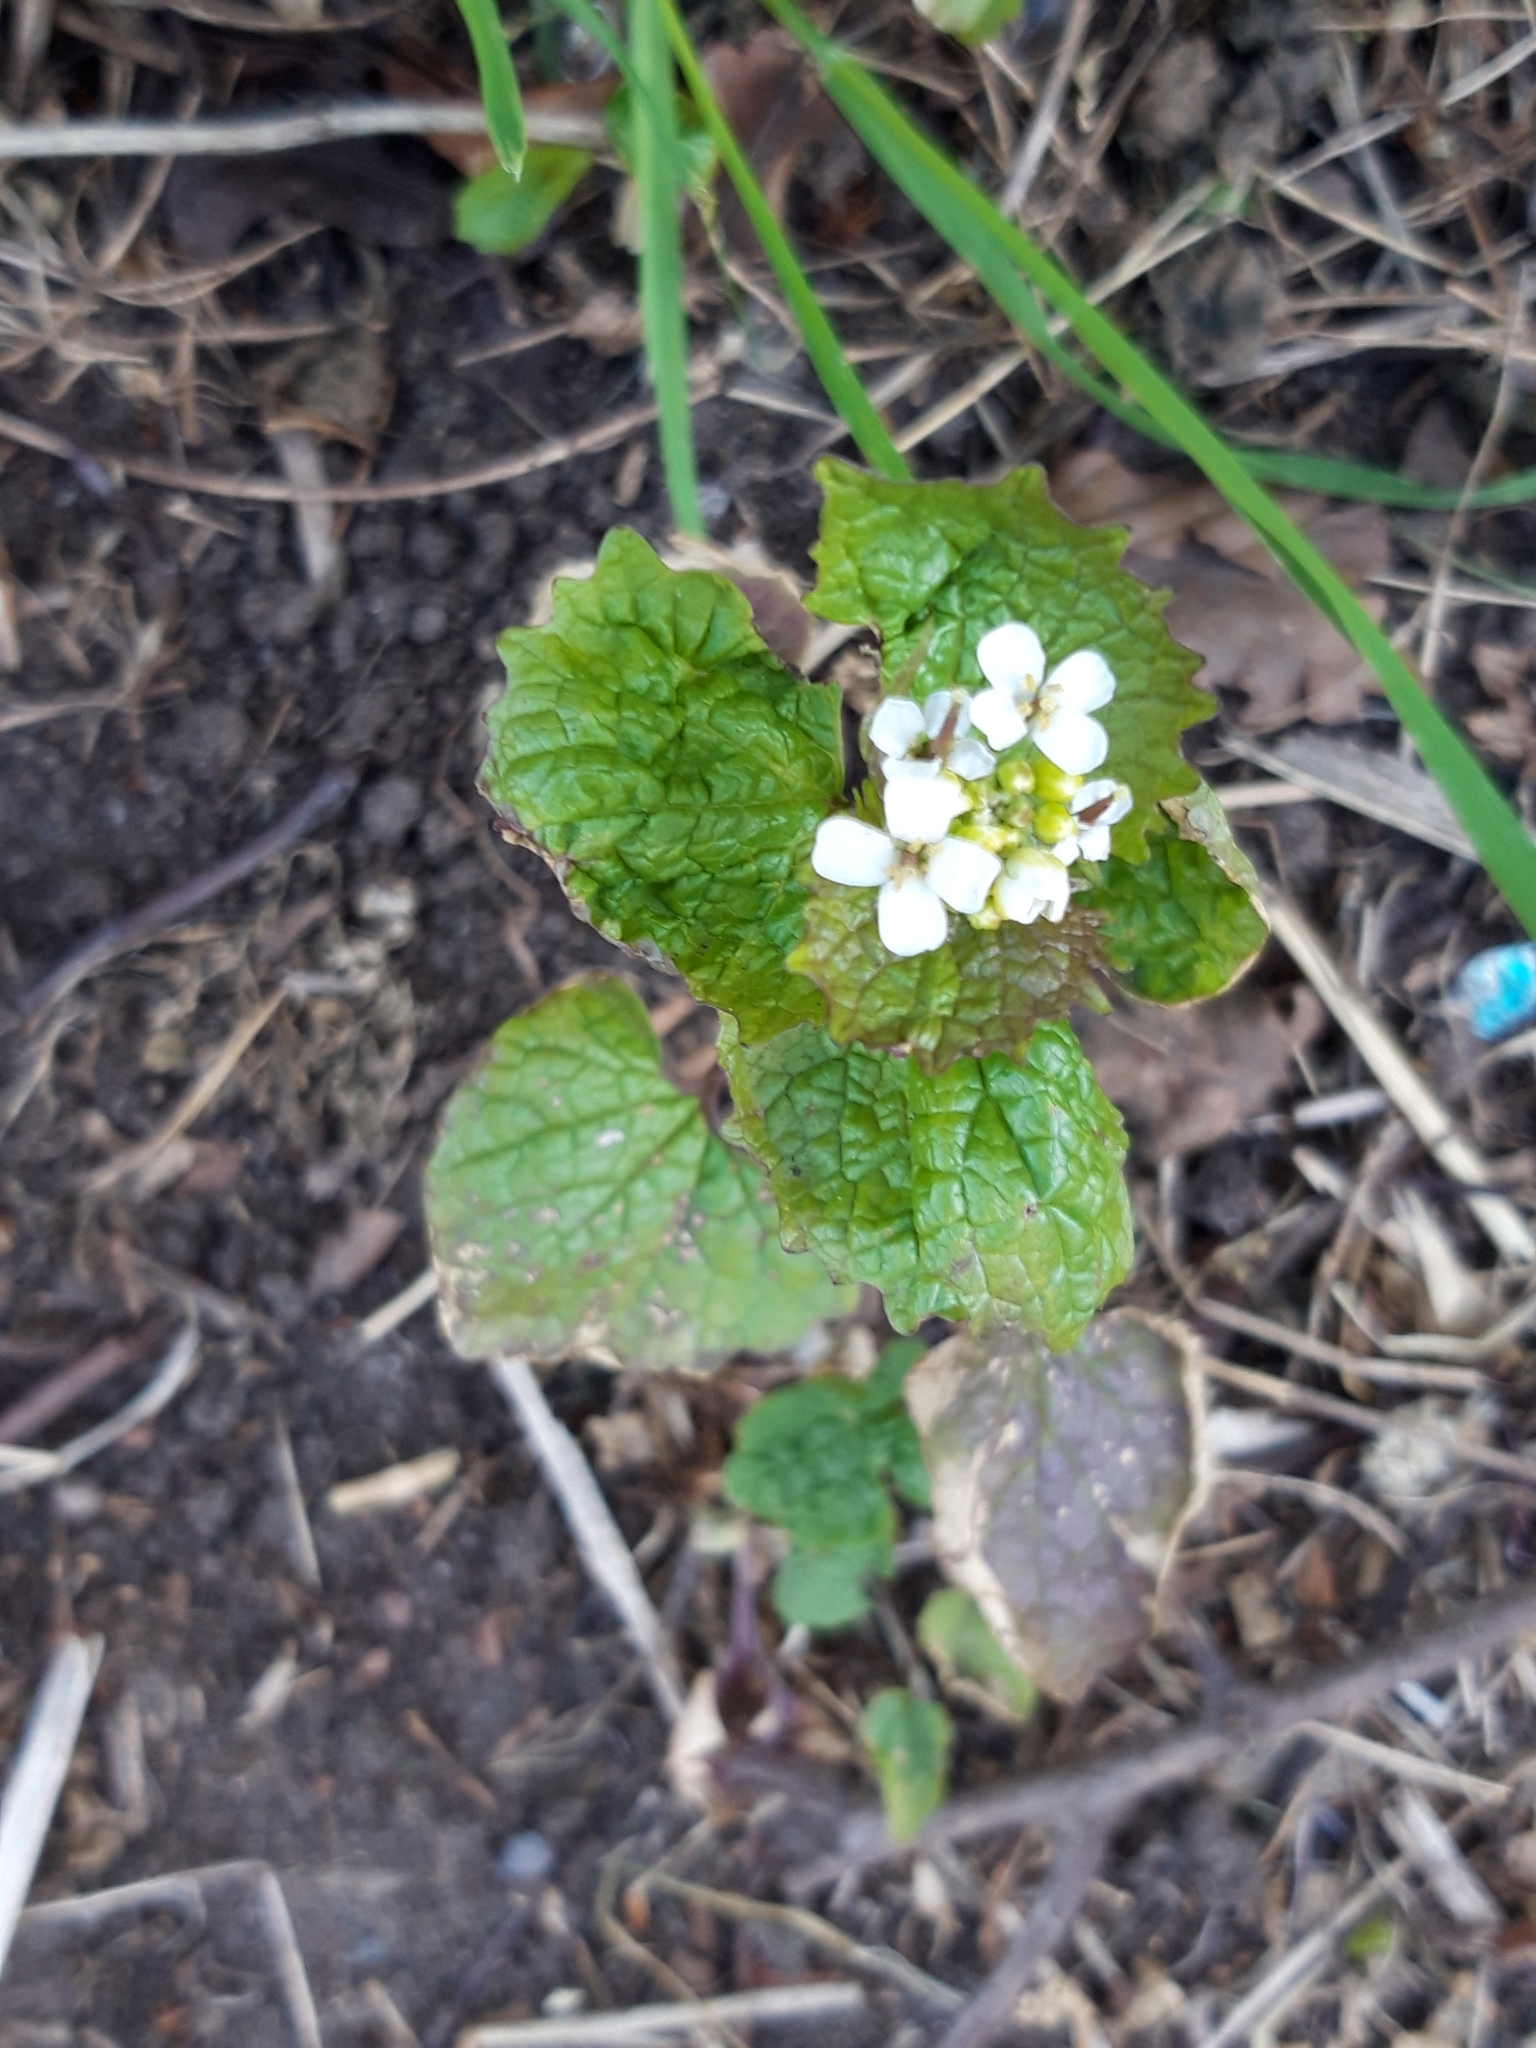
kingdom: Plantae
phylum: Tracheophyta
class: Magnoliopsida
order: Brassicales
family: Brassicaceae
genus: Alliaria
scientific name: Alliaria petiolata
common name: Garlic mustard
